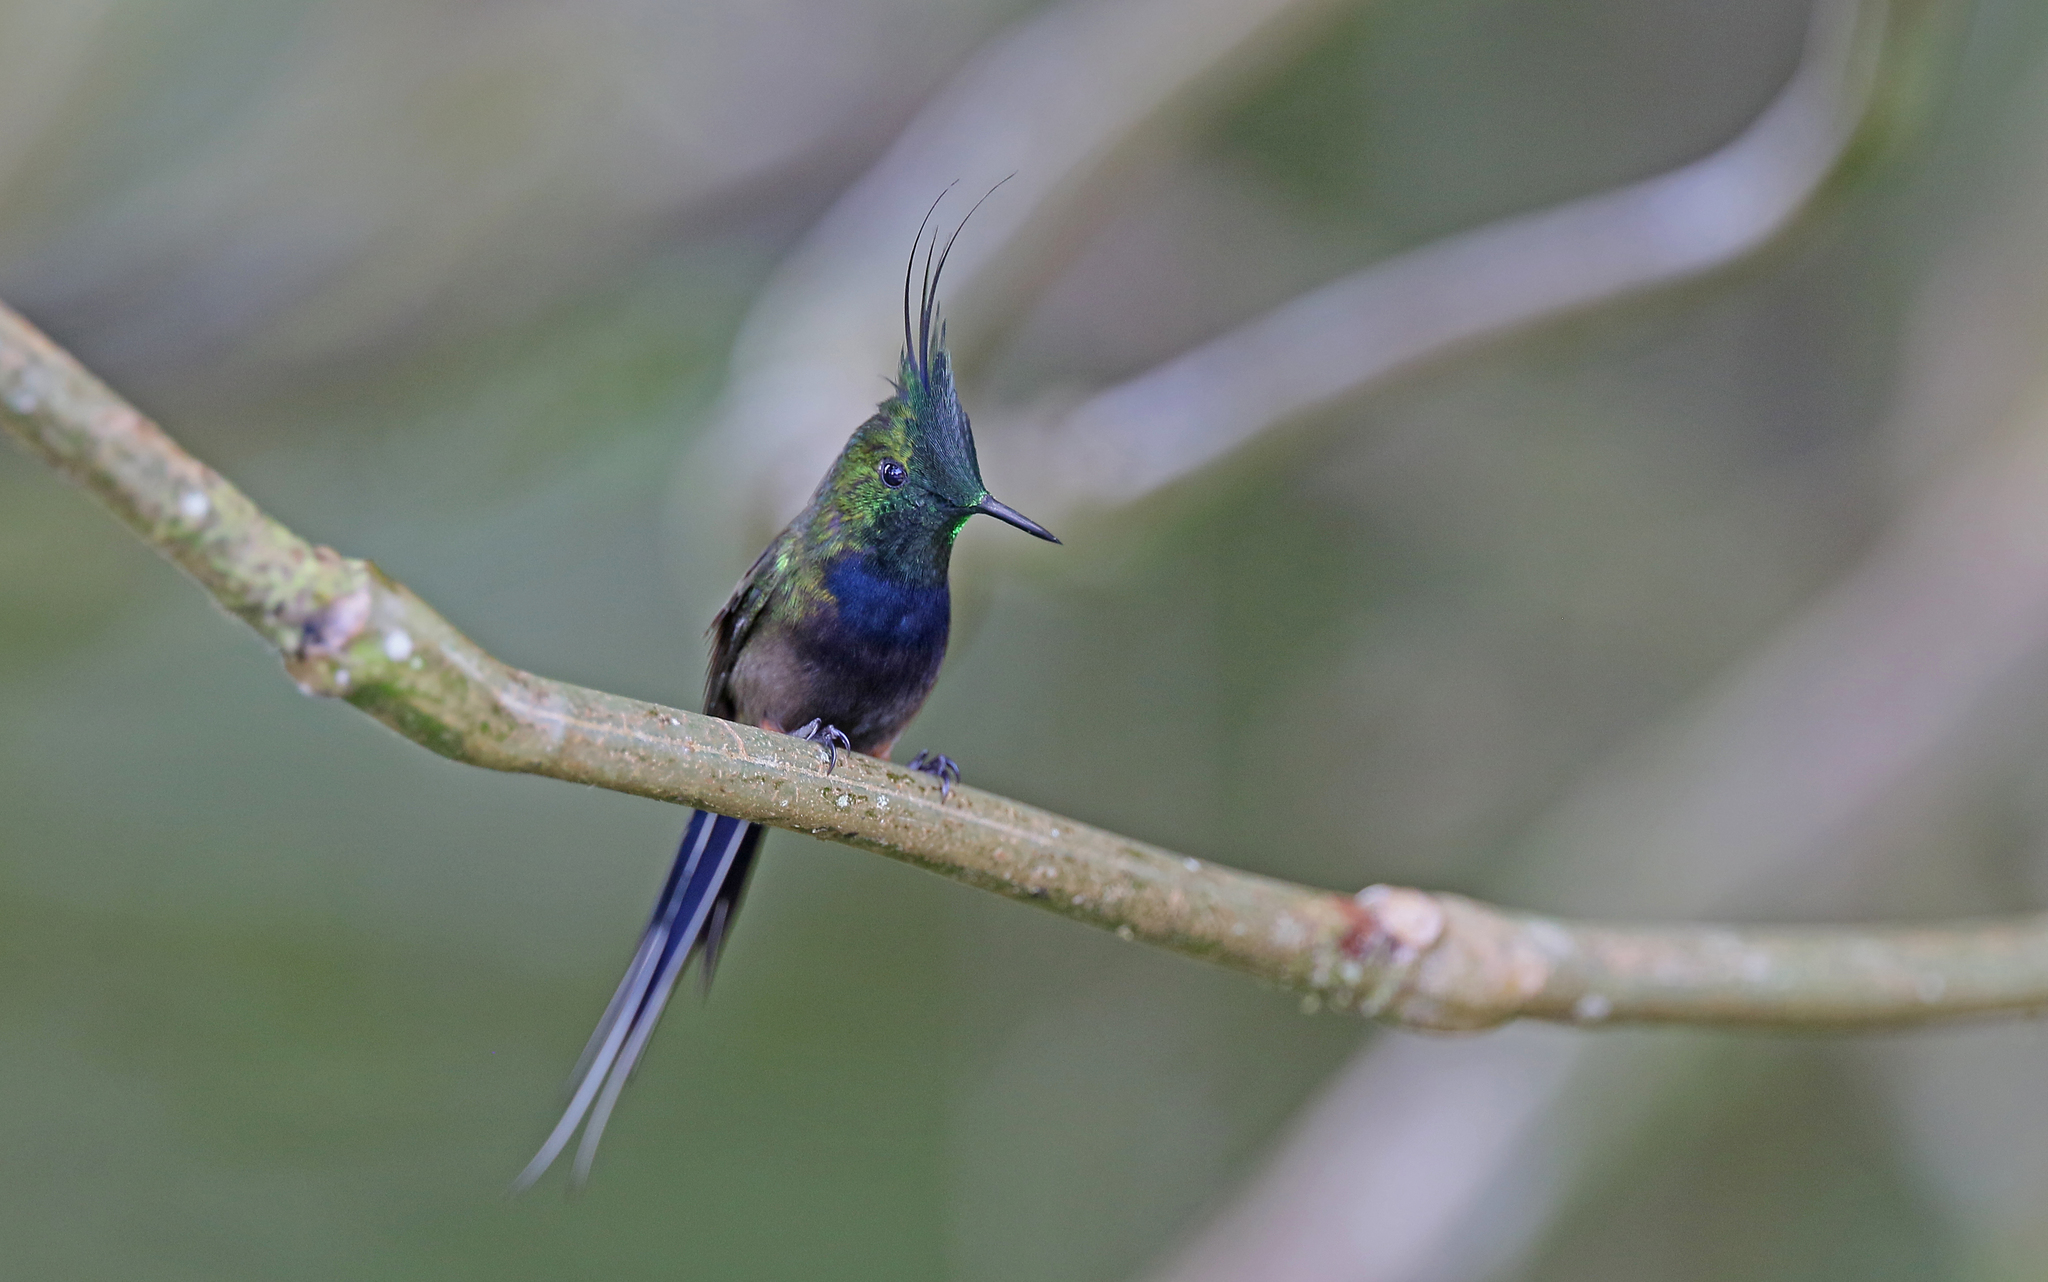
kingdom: Animalia
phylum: Chordata
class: Aves
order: Apodiformes
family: Trochilidae
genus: Discosura
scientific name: Discosura popelairii
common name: Wire-crested thorntail
